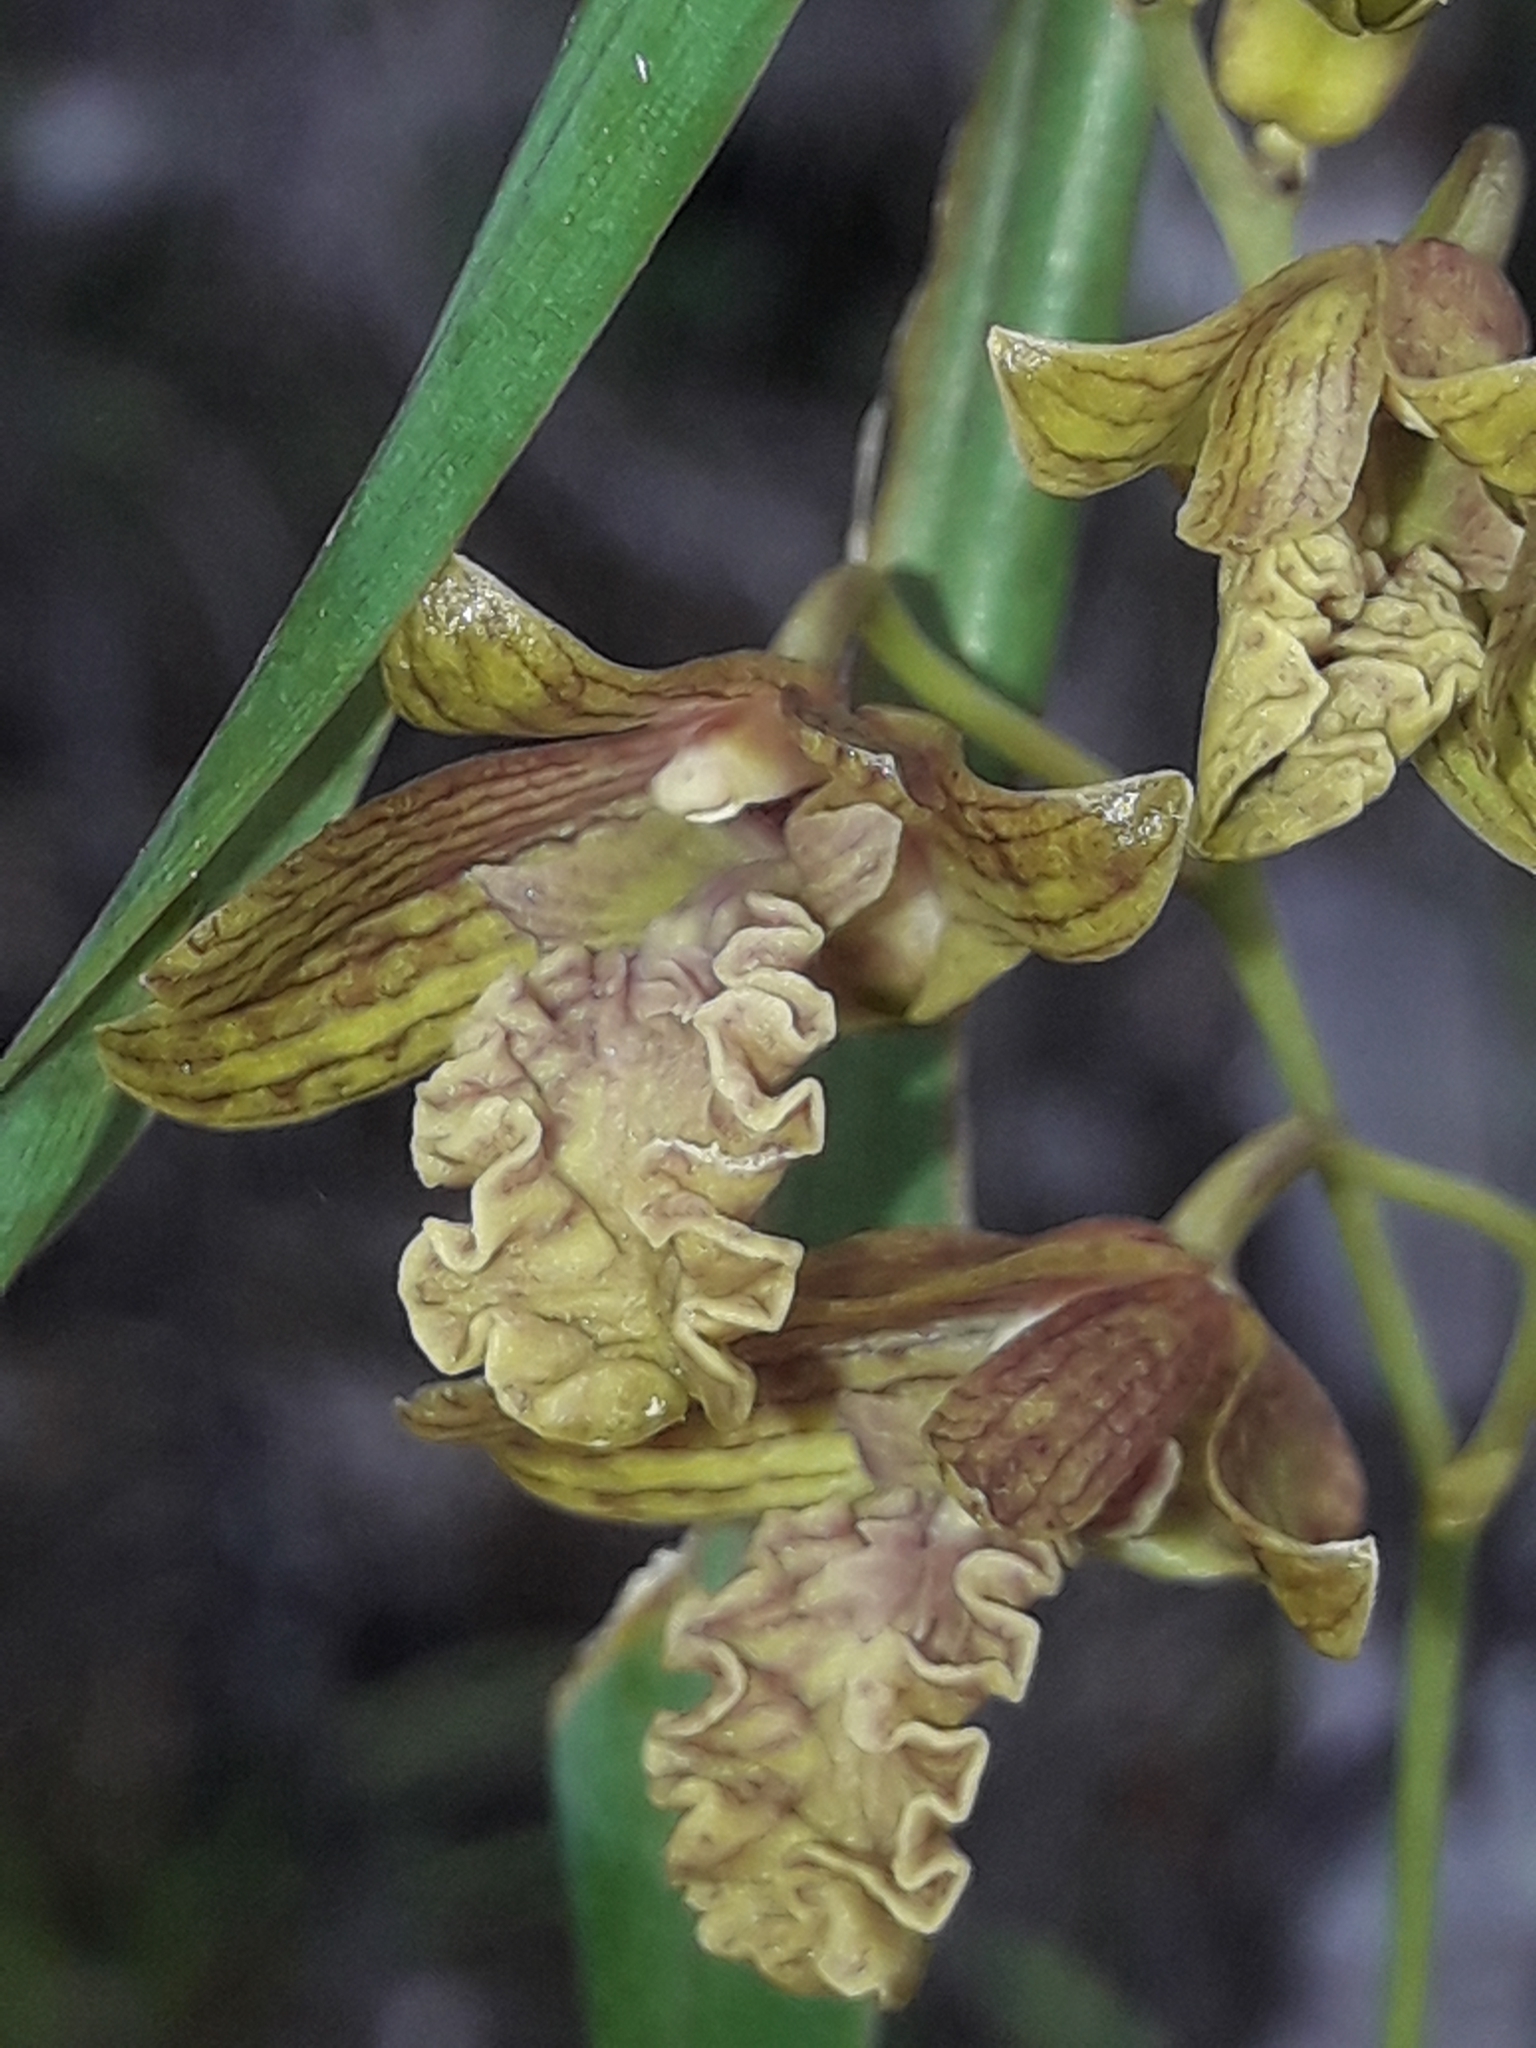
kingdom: Plantae
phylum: Tracheophyta
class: Liliopsida
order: Asparagales
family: Orchidaceae
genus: Dendrobium
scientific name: Dendrobium cymatoleguum
